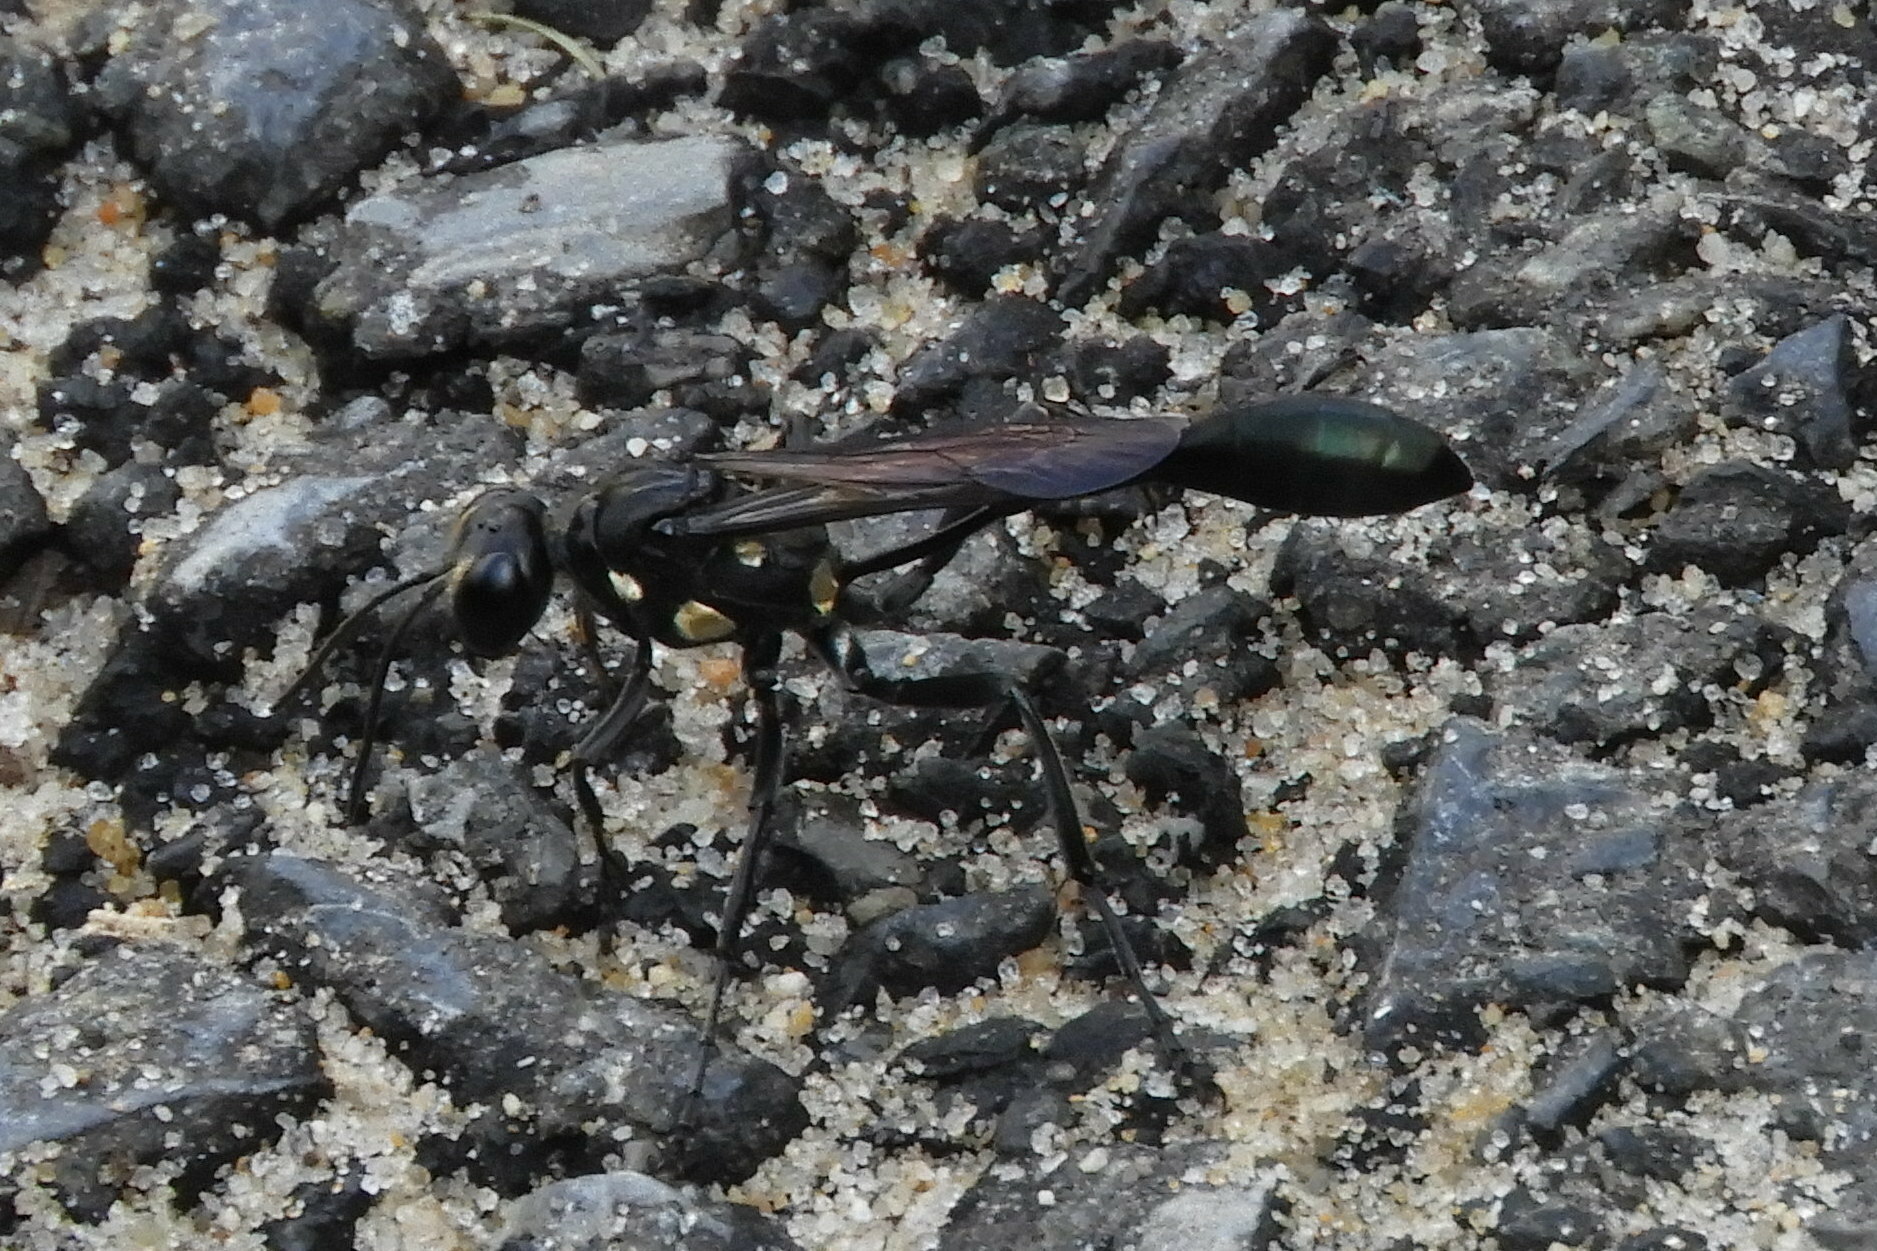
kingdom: Animalia
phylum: Arthropoda
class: Insecta
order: Hymenoptera
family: Sphecidae
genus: Eremnophila
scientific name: Eremnophila aureonotata
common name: Gold-marked thread-waisted wasp
